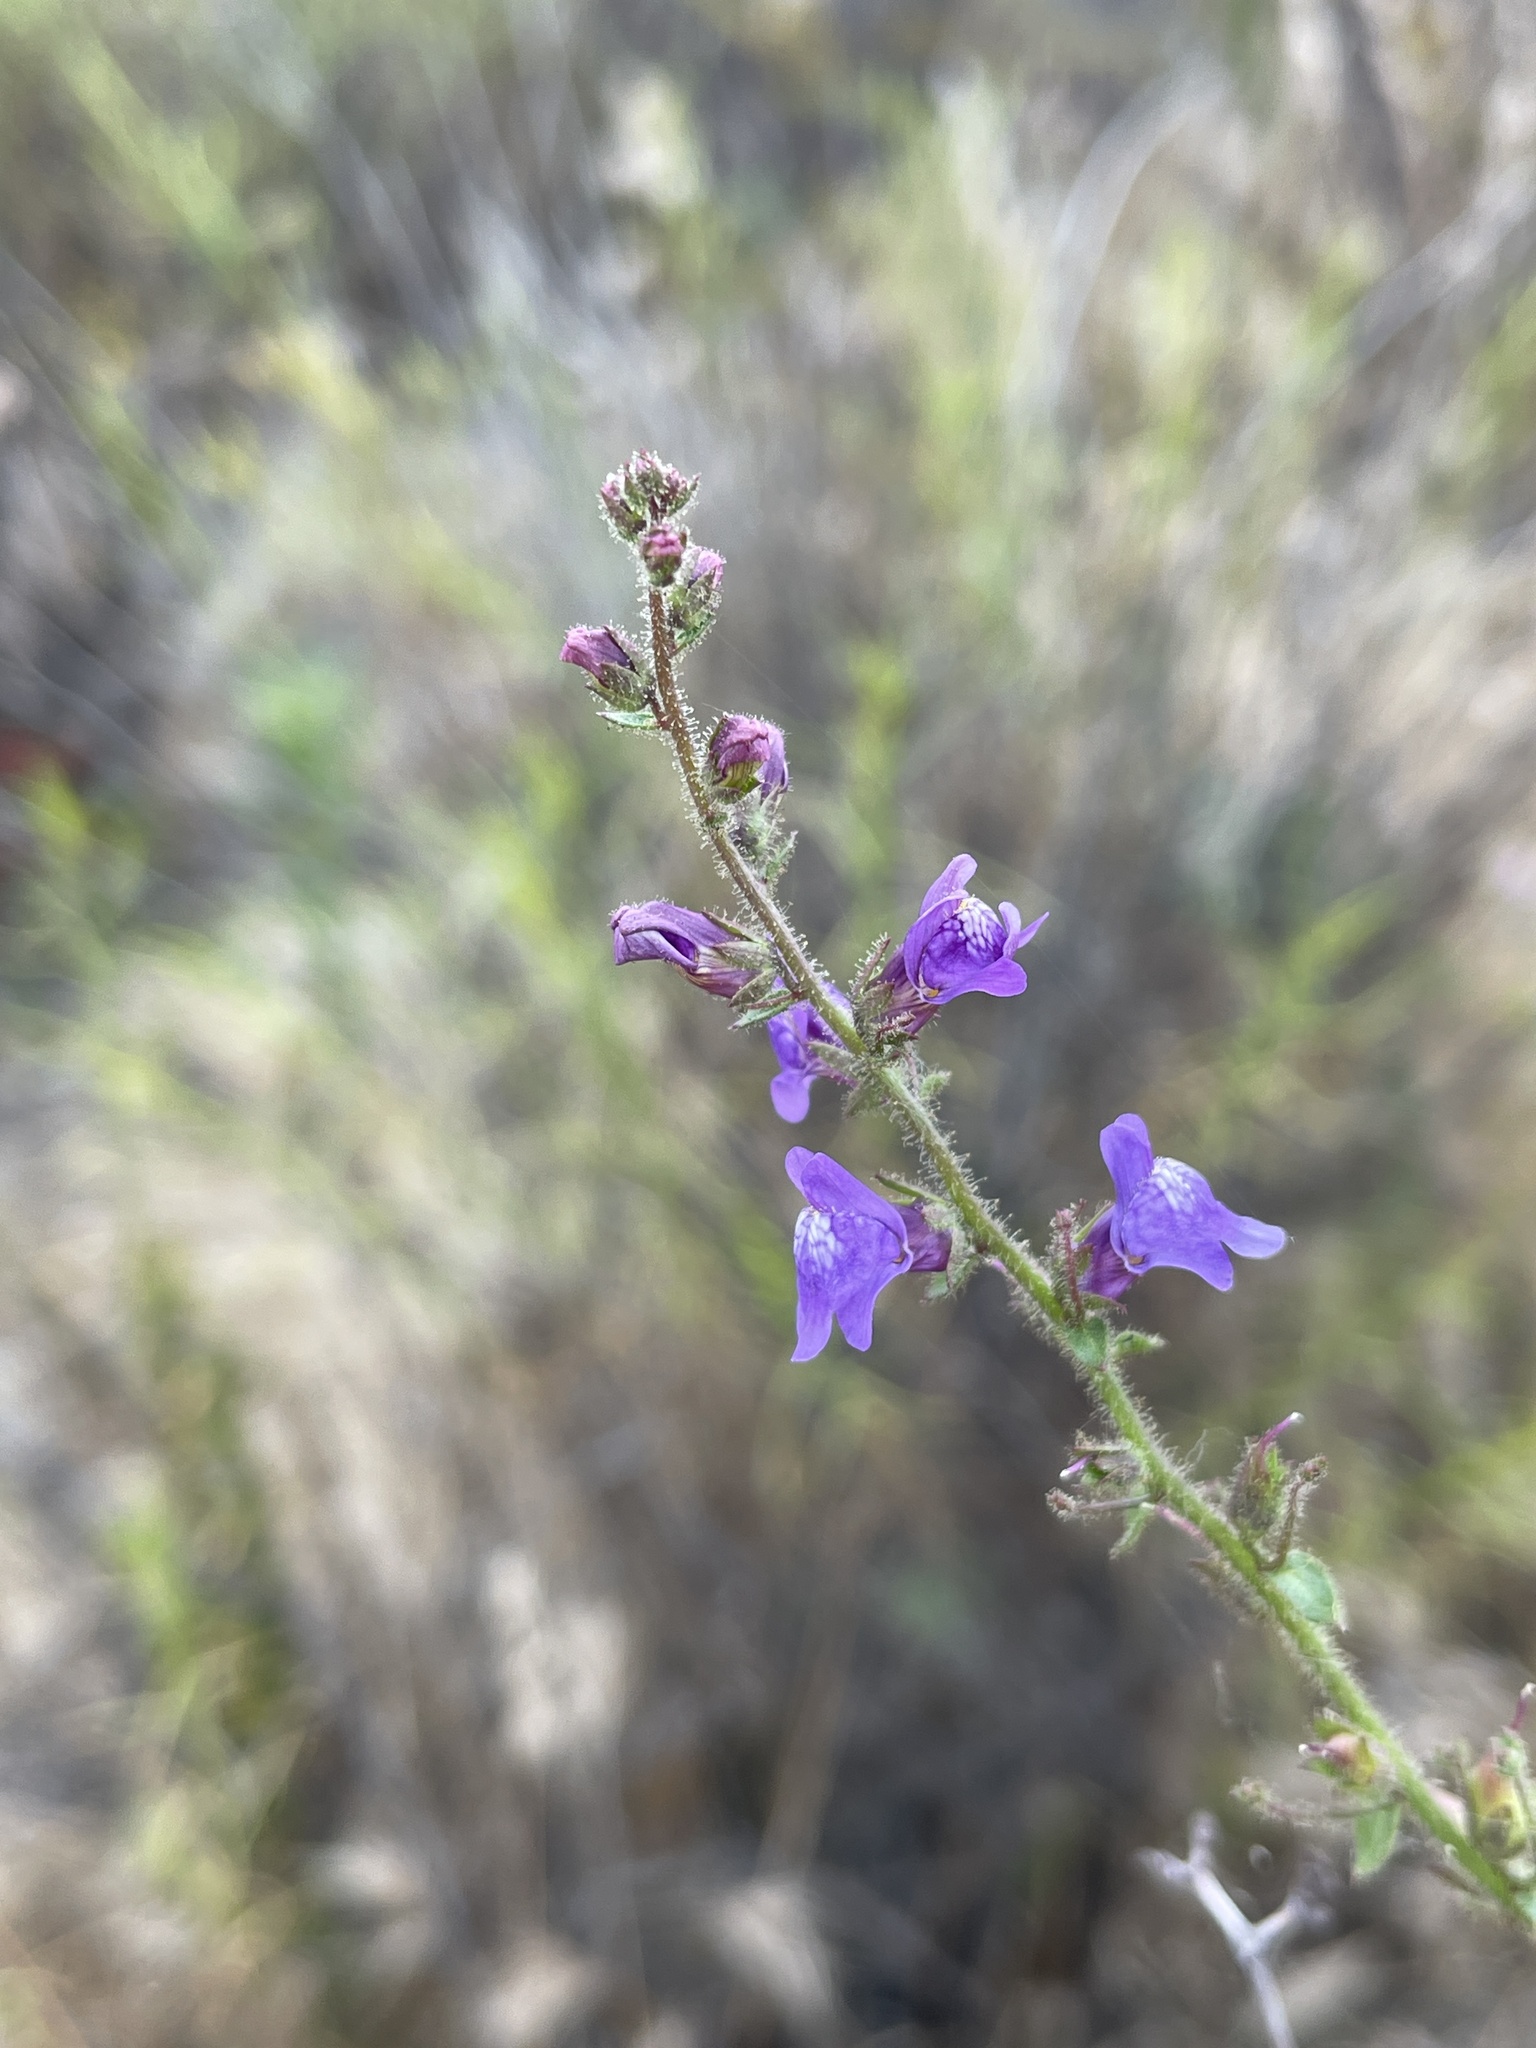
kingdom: Plantae
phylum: Tracheophyta
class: Magnoliopsida
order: Lamiales
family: Plantaginaceae
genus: Sairocarpus
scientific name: Sairocarpus nuttallianus
